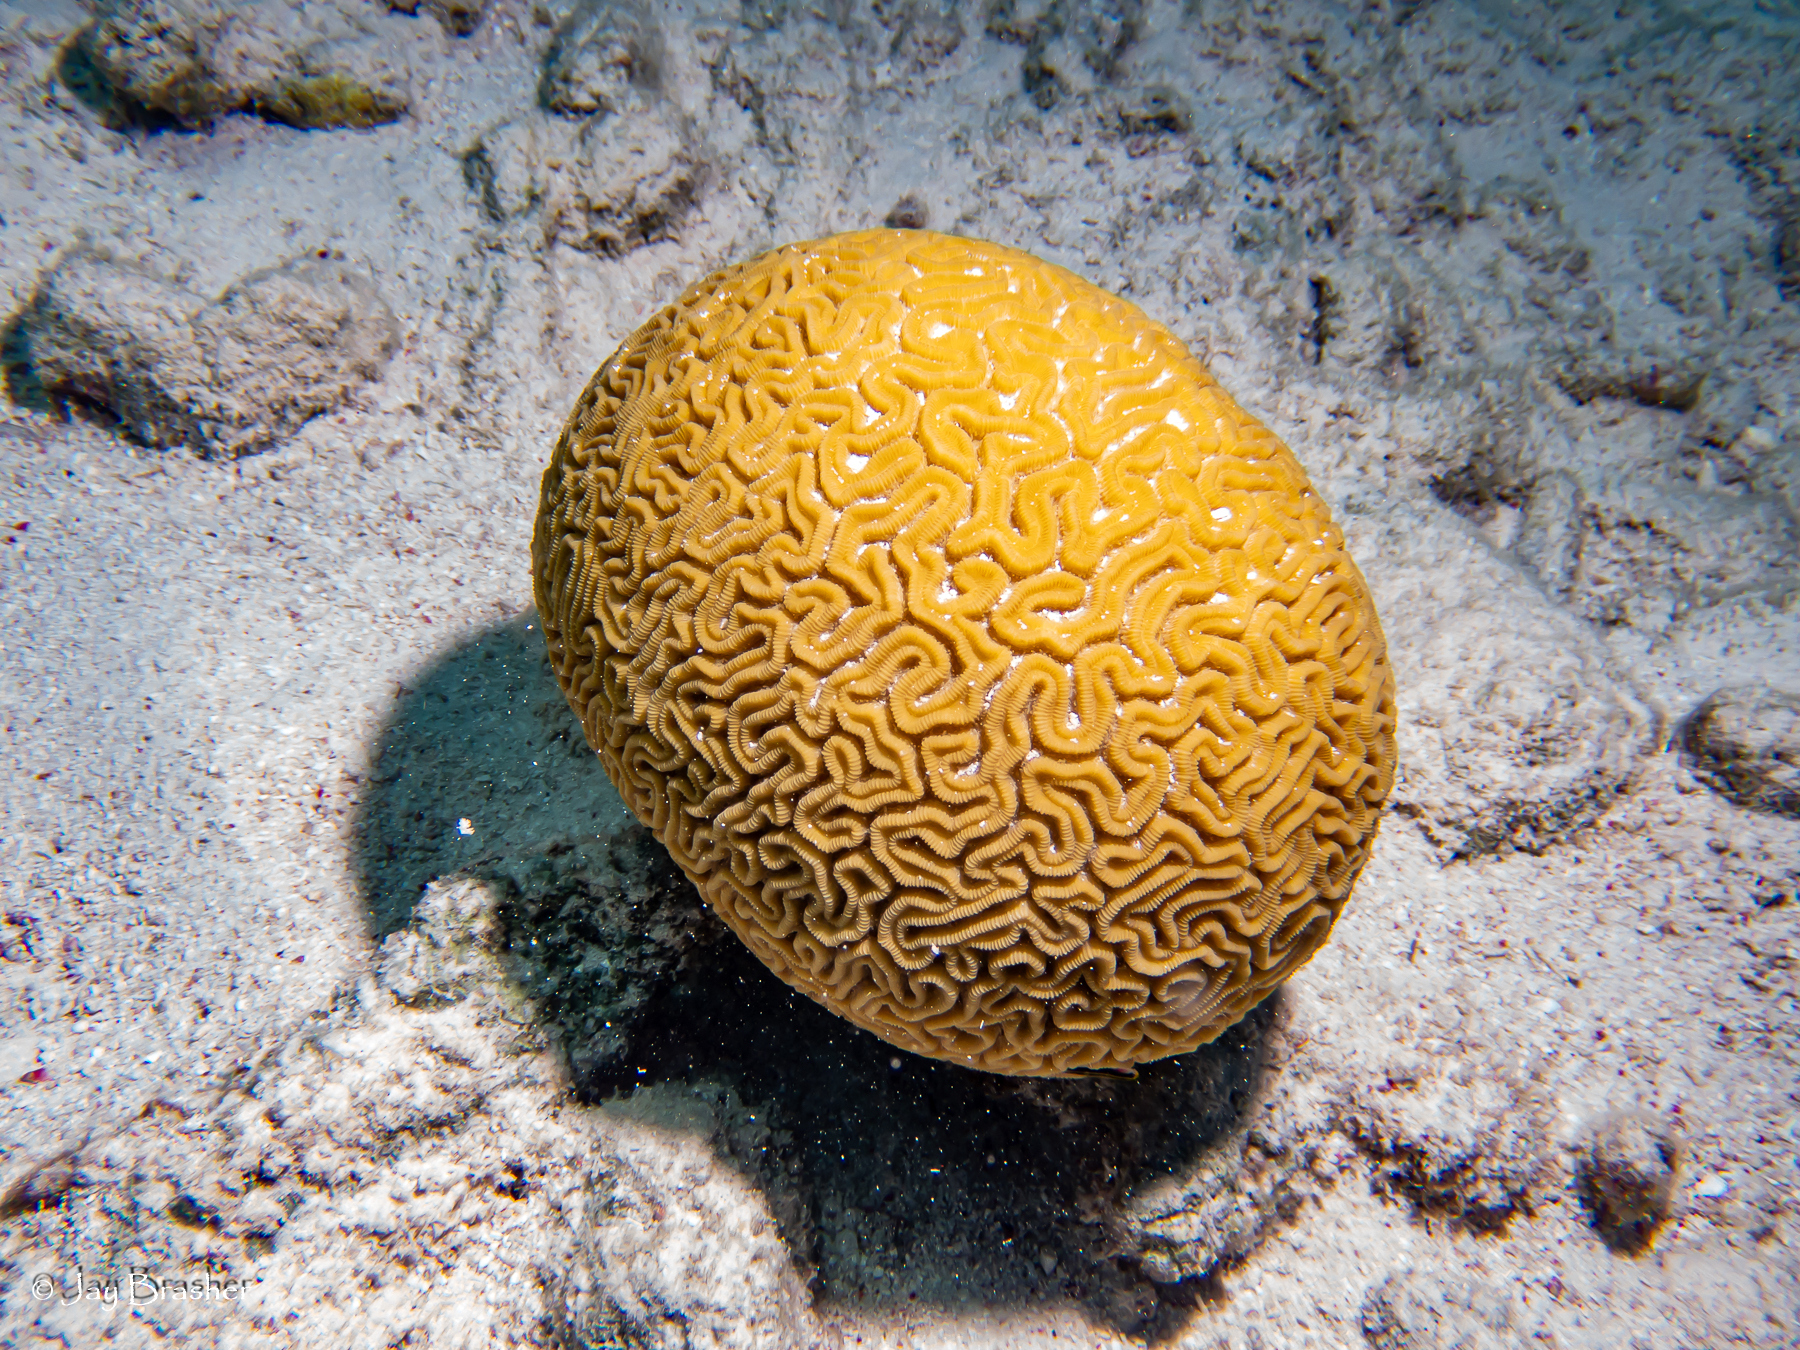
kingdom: Animalia
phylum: Cnidaria
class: Anthozoa
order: Scleractinia
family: Faviidae
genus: Diploria
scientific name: Diploria labyrinthiformis
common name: Grooved brain coral
